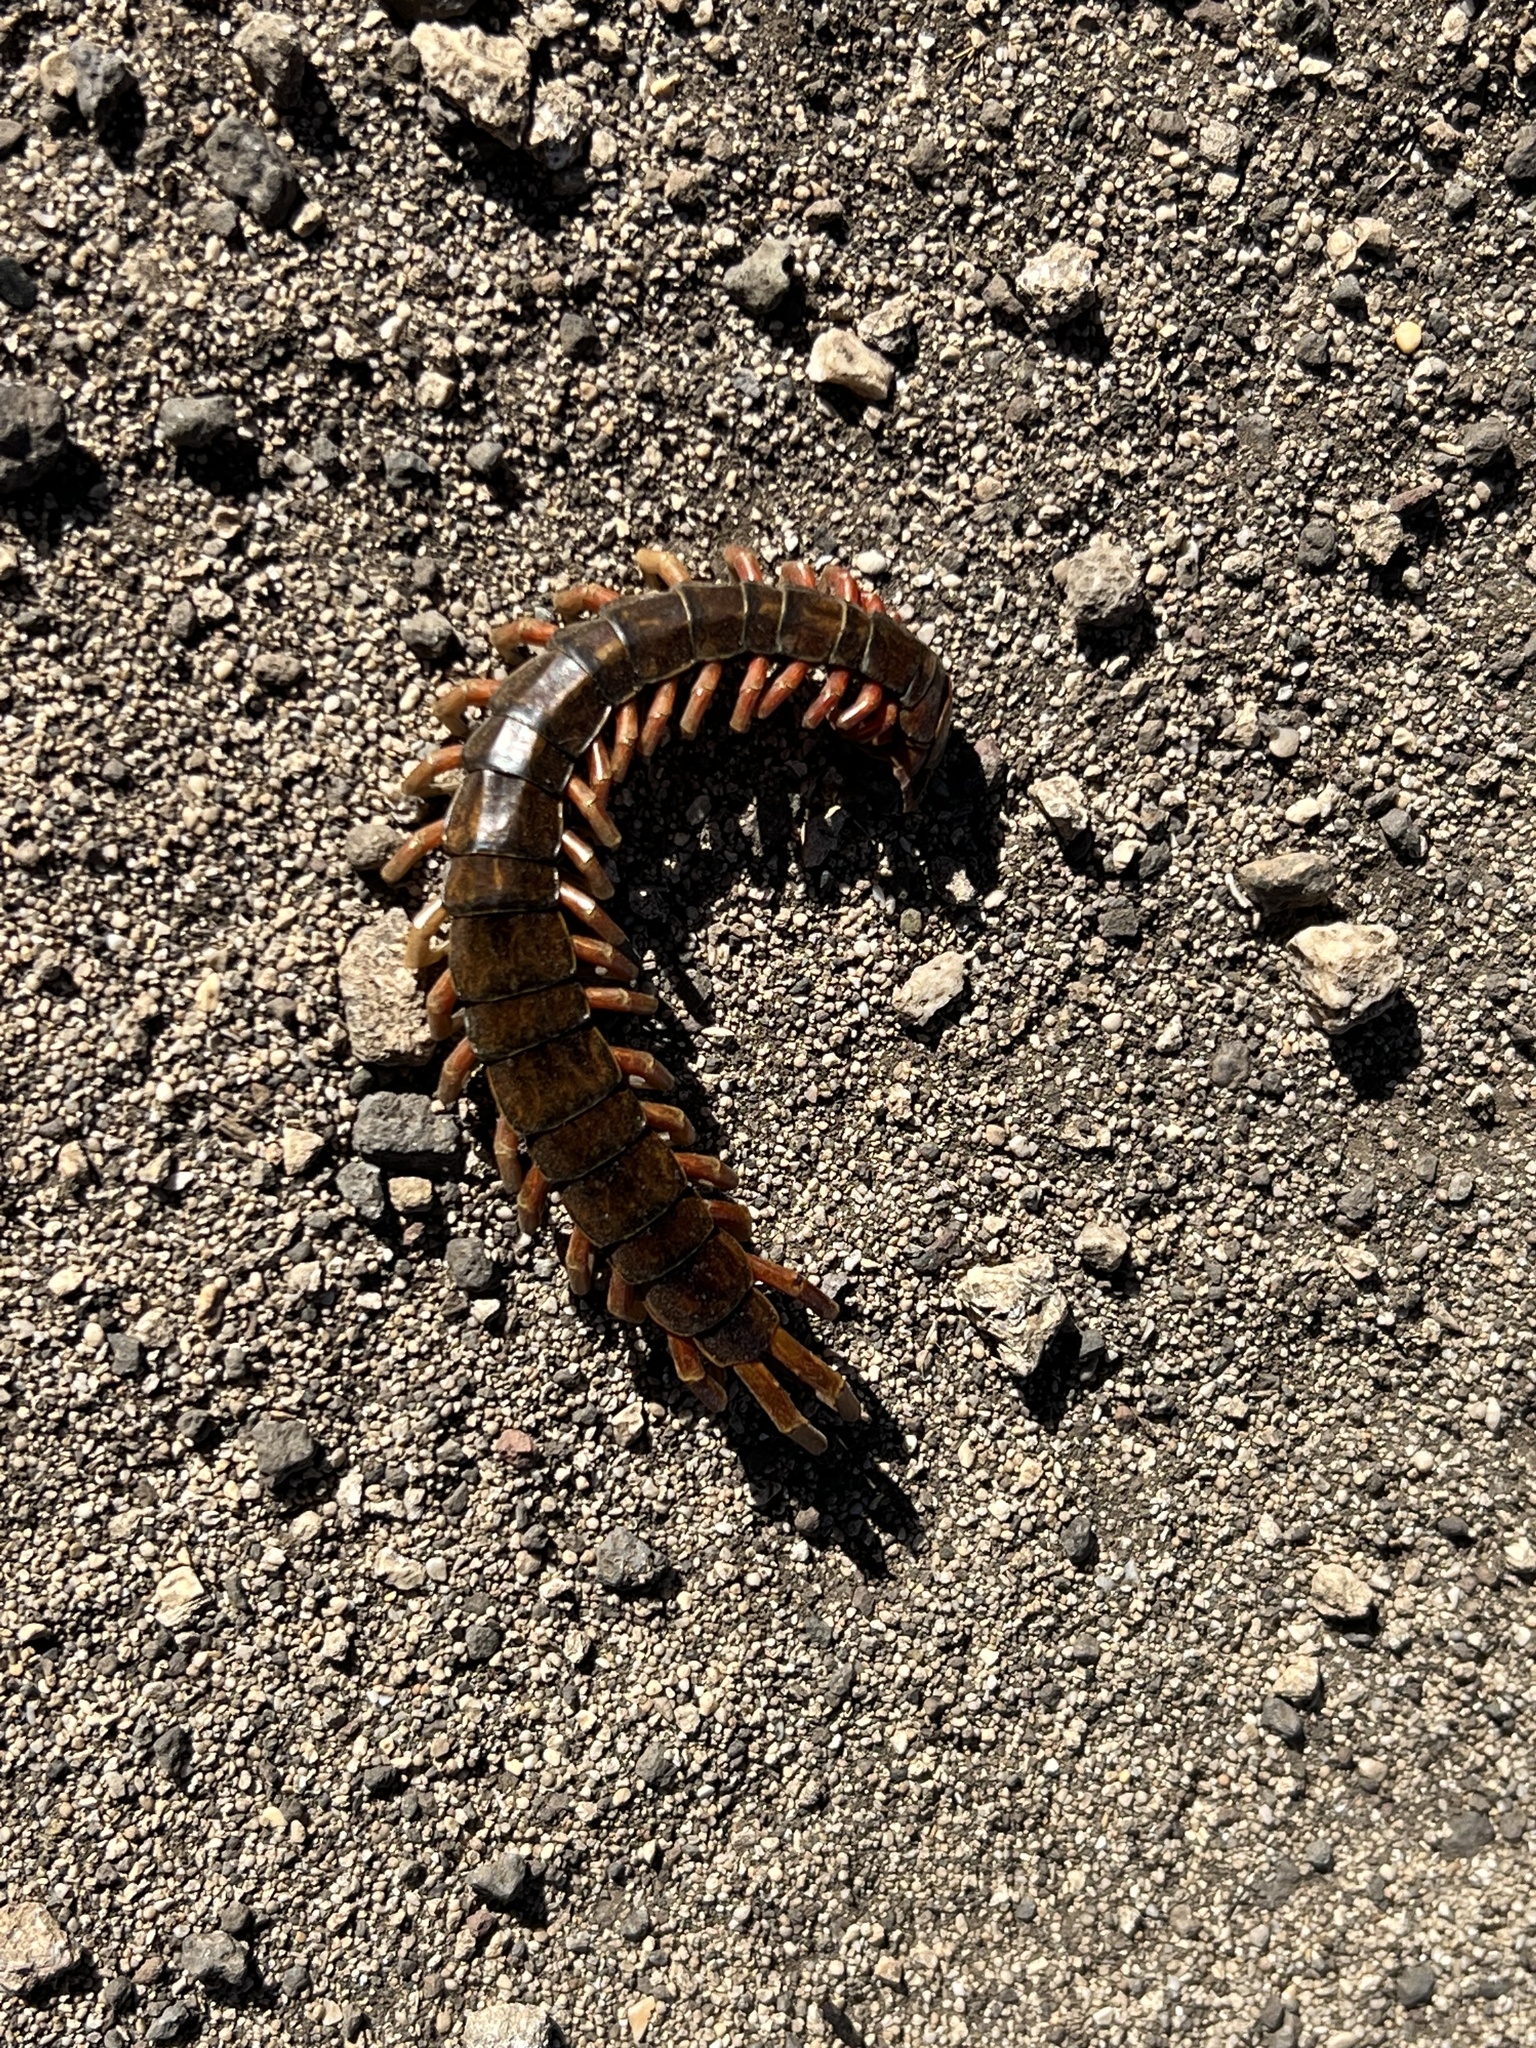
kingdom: Animalia
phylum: Arthropoda
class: Chilopoda
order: Scolopendromorpha
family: Scolopendridae
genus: Scolopendra
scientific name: Scolopendra subspinipes
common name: Centipede
